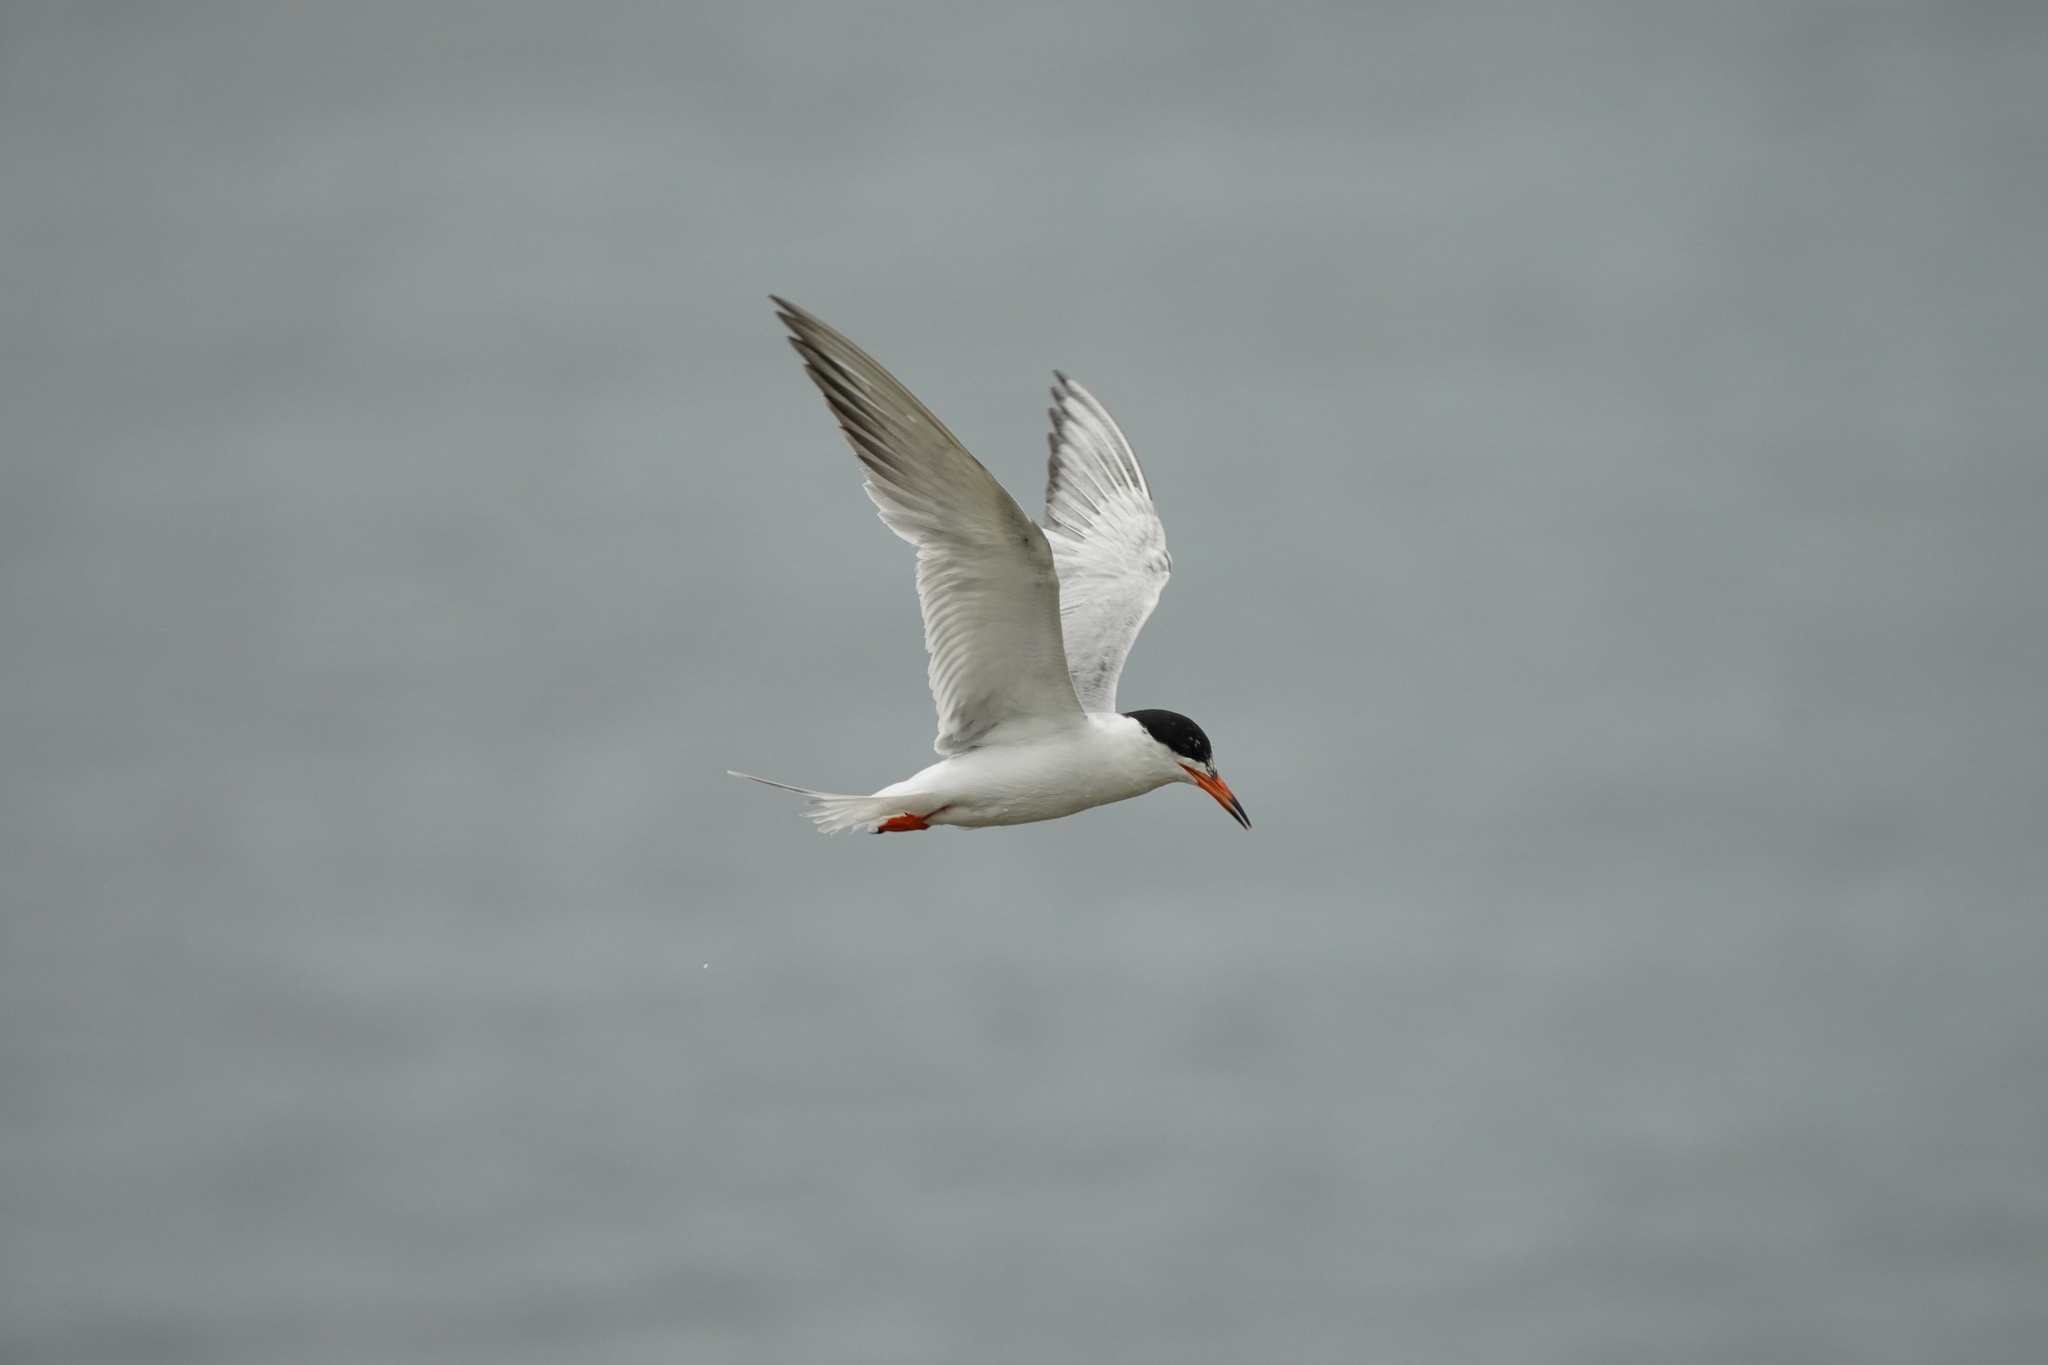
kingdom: Animalia
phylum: Chordata
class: Aves
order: Charadriiformes
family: Laridae
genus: Sterna
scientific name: Sterna forsteri
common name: Forster's tern
